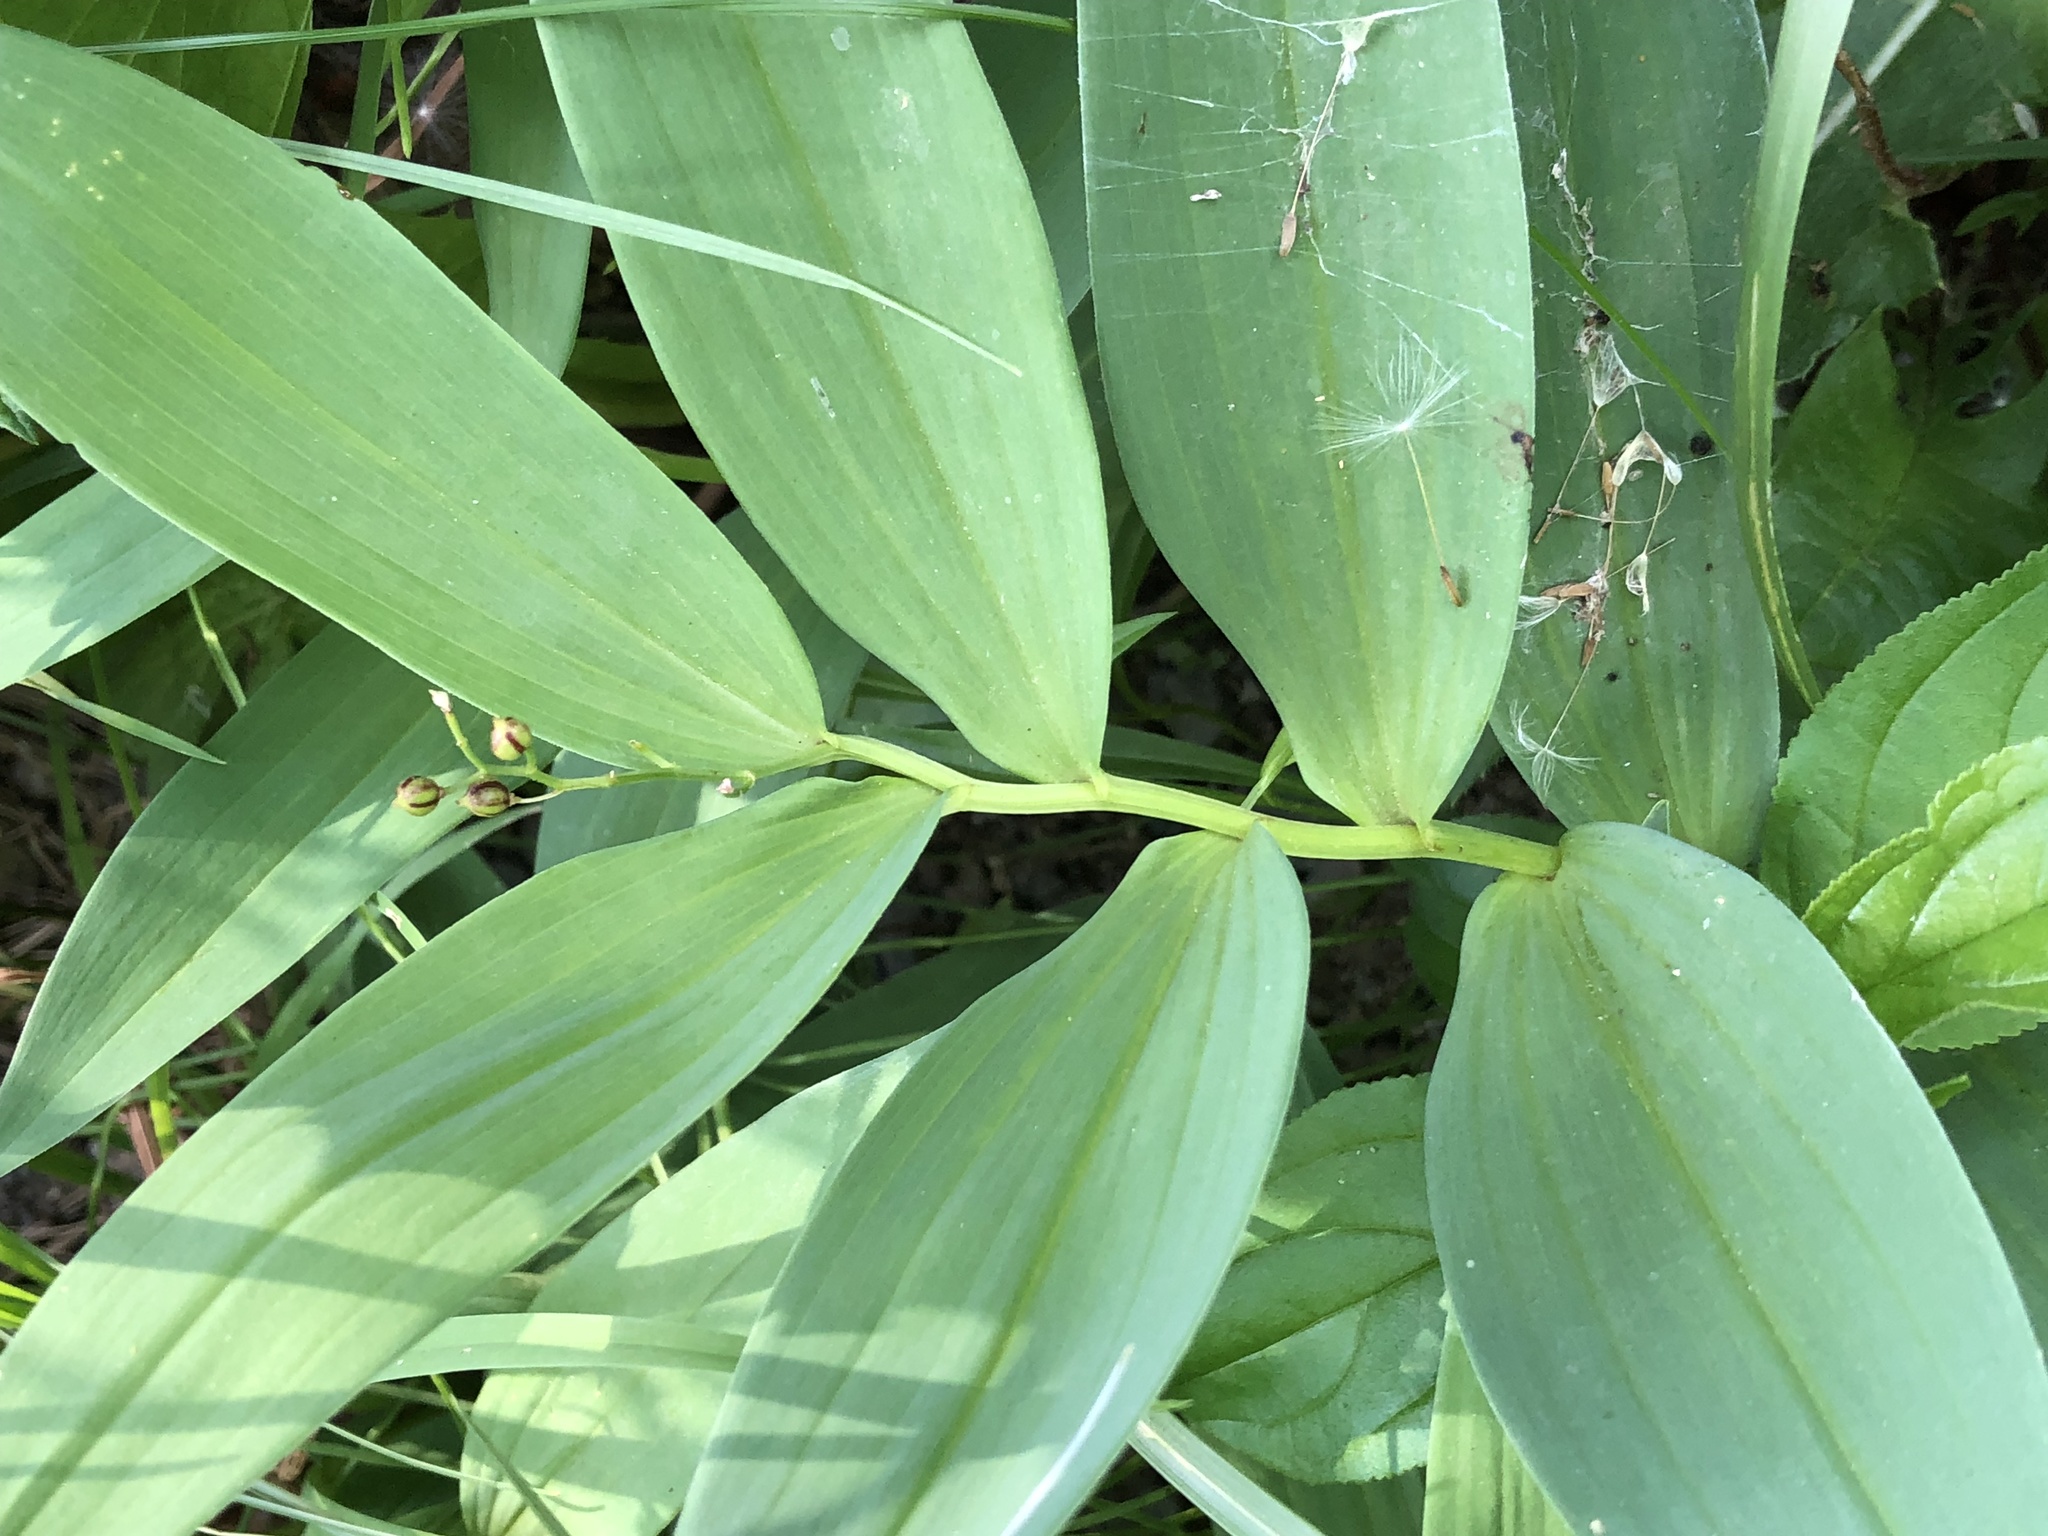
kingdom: Plantae
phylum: Tracheophyta
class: Liliopsida
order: Asparagales
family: Asparagaceae
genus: Maianthemum
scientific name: Maianthemum stellatum
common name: Little false solomon's seal
